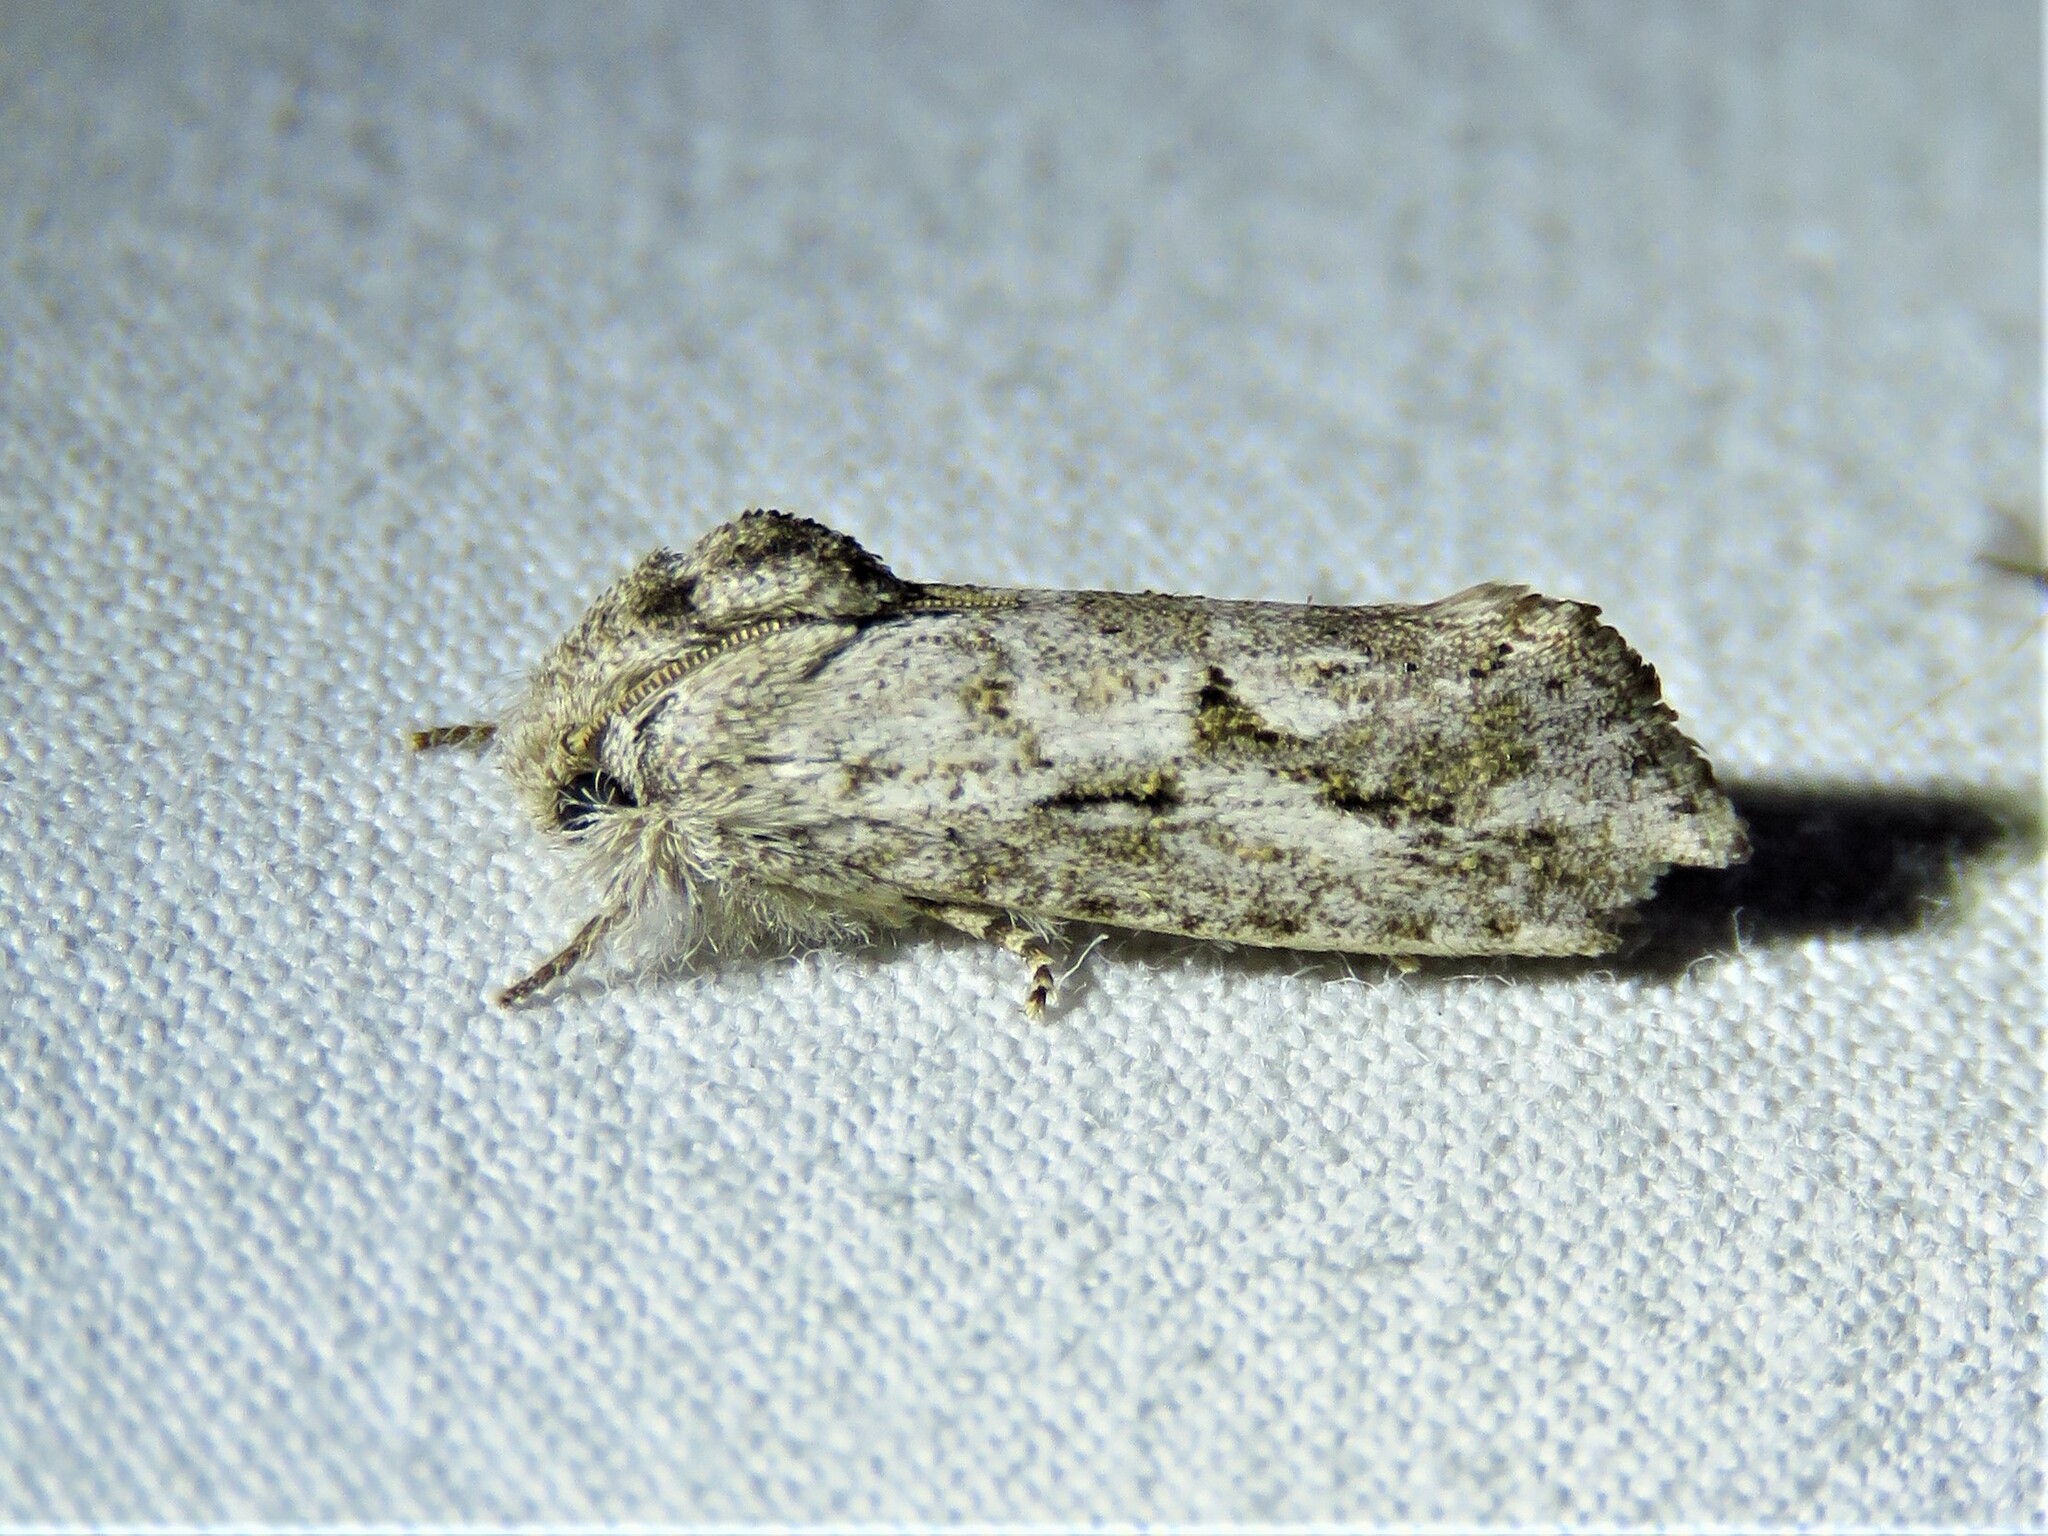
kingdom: Animalia
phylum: Arthropoda
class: Insecta
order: Lepidoptera
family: Tineidae
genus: Acrolophus
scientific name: Acrolophus griseus
